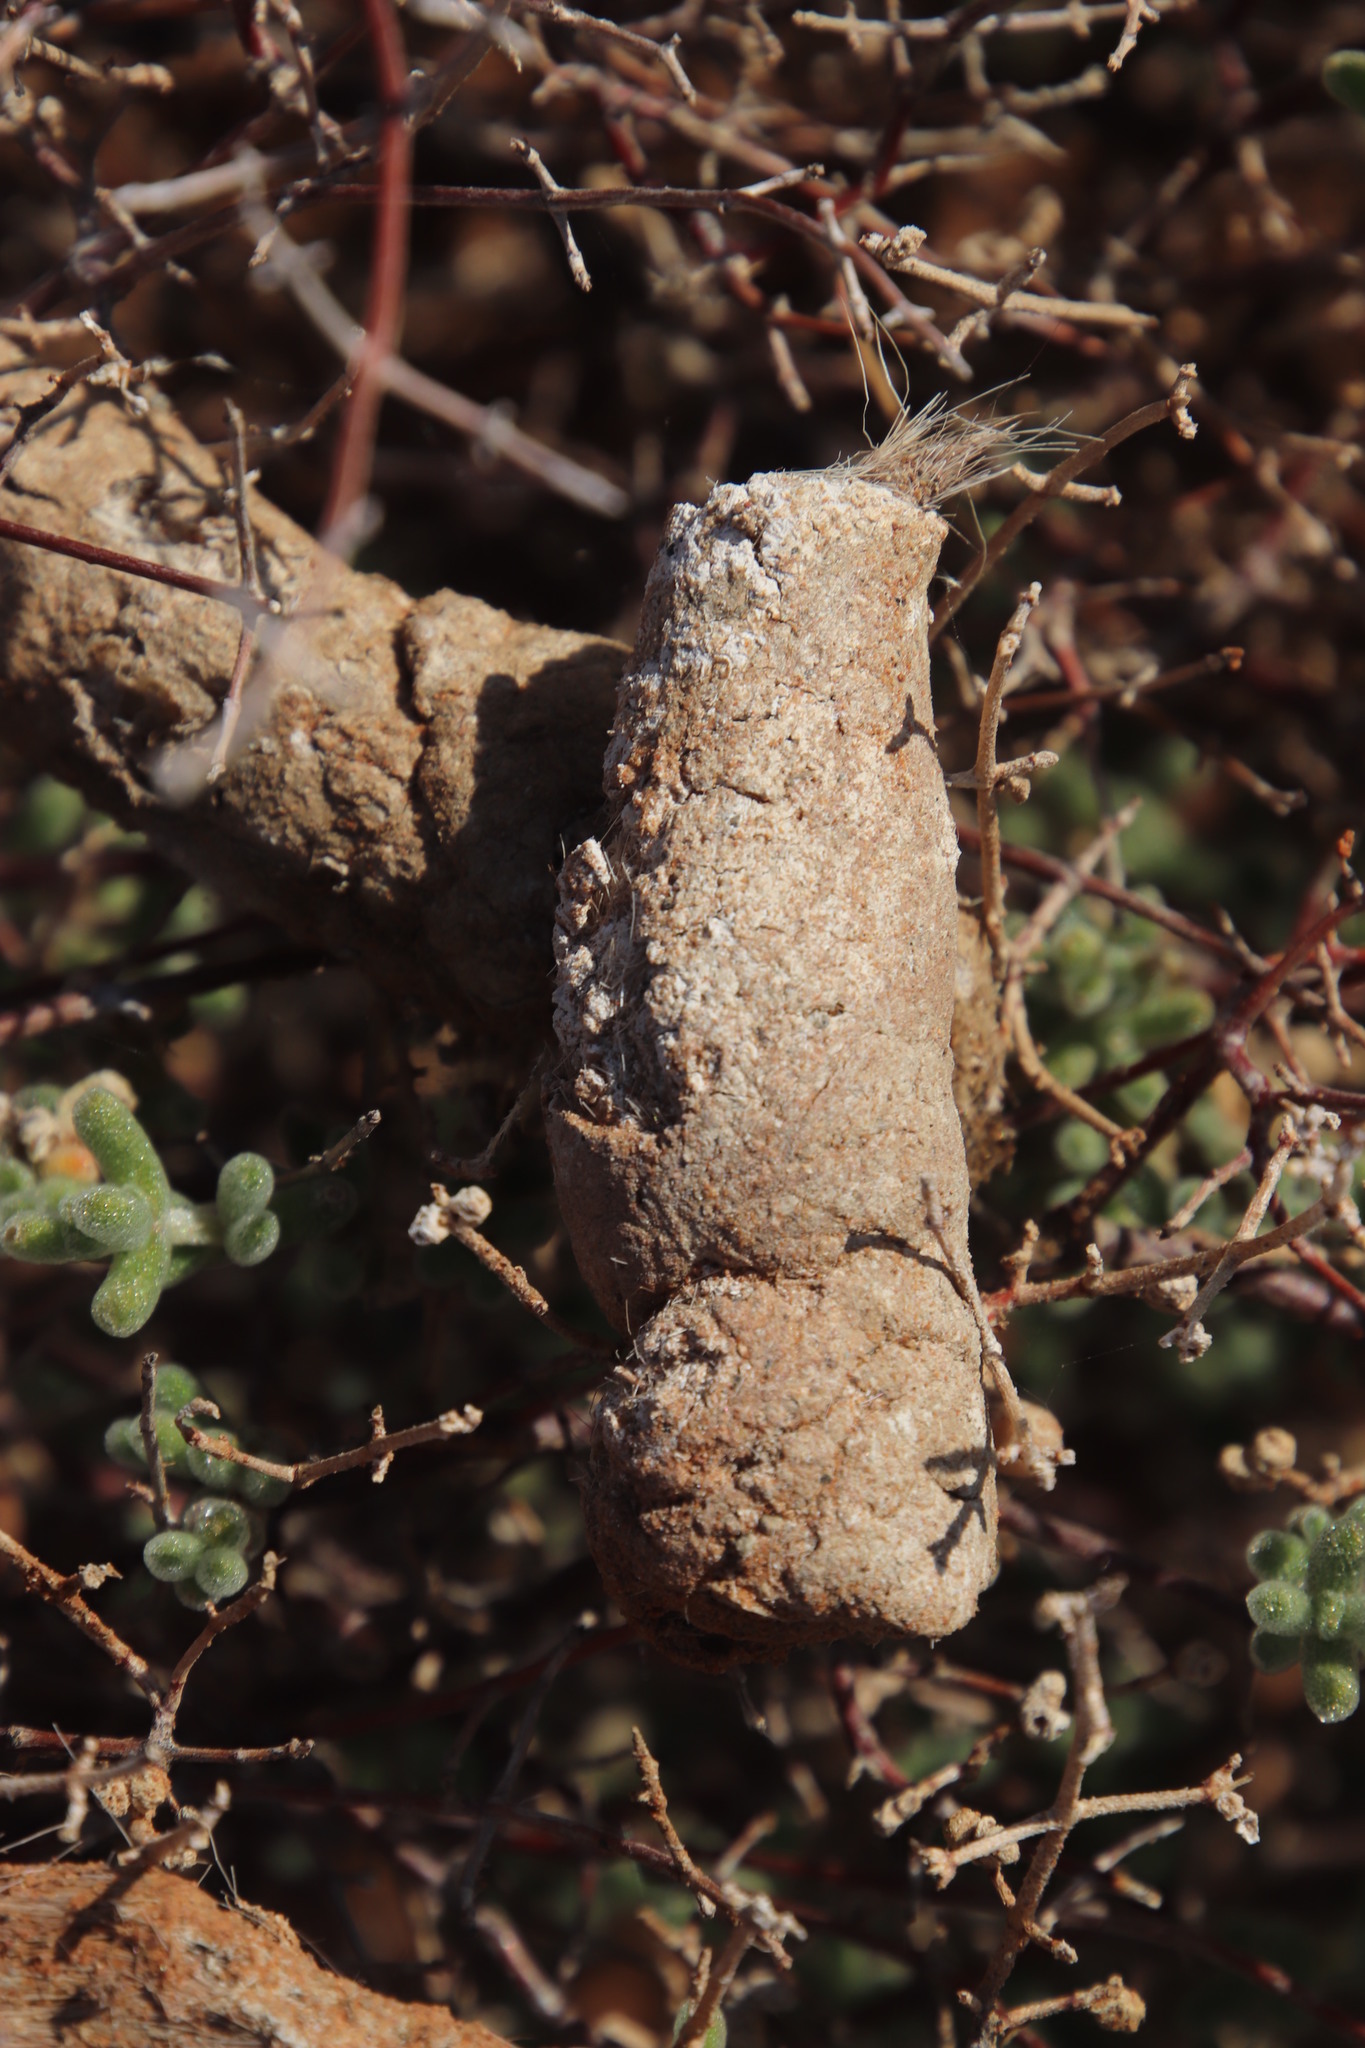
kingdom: Animalia
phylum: Chordata
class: Mammalia
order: Carnivora
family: Canidae
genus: Lupulella
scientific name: Lupulella
